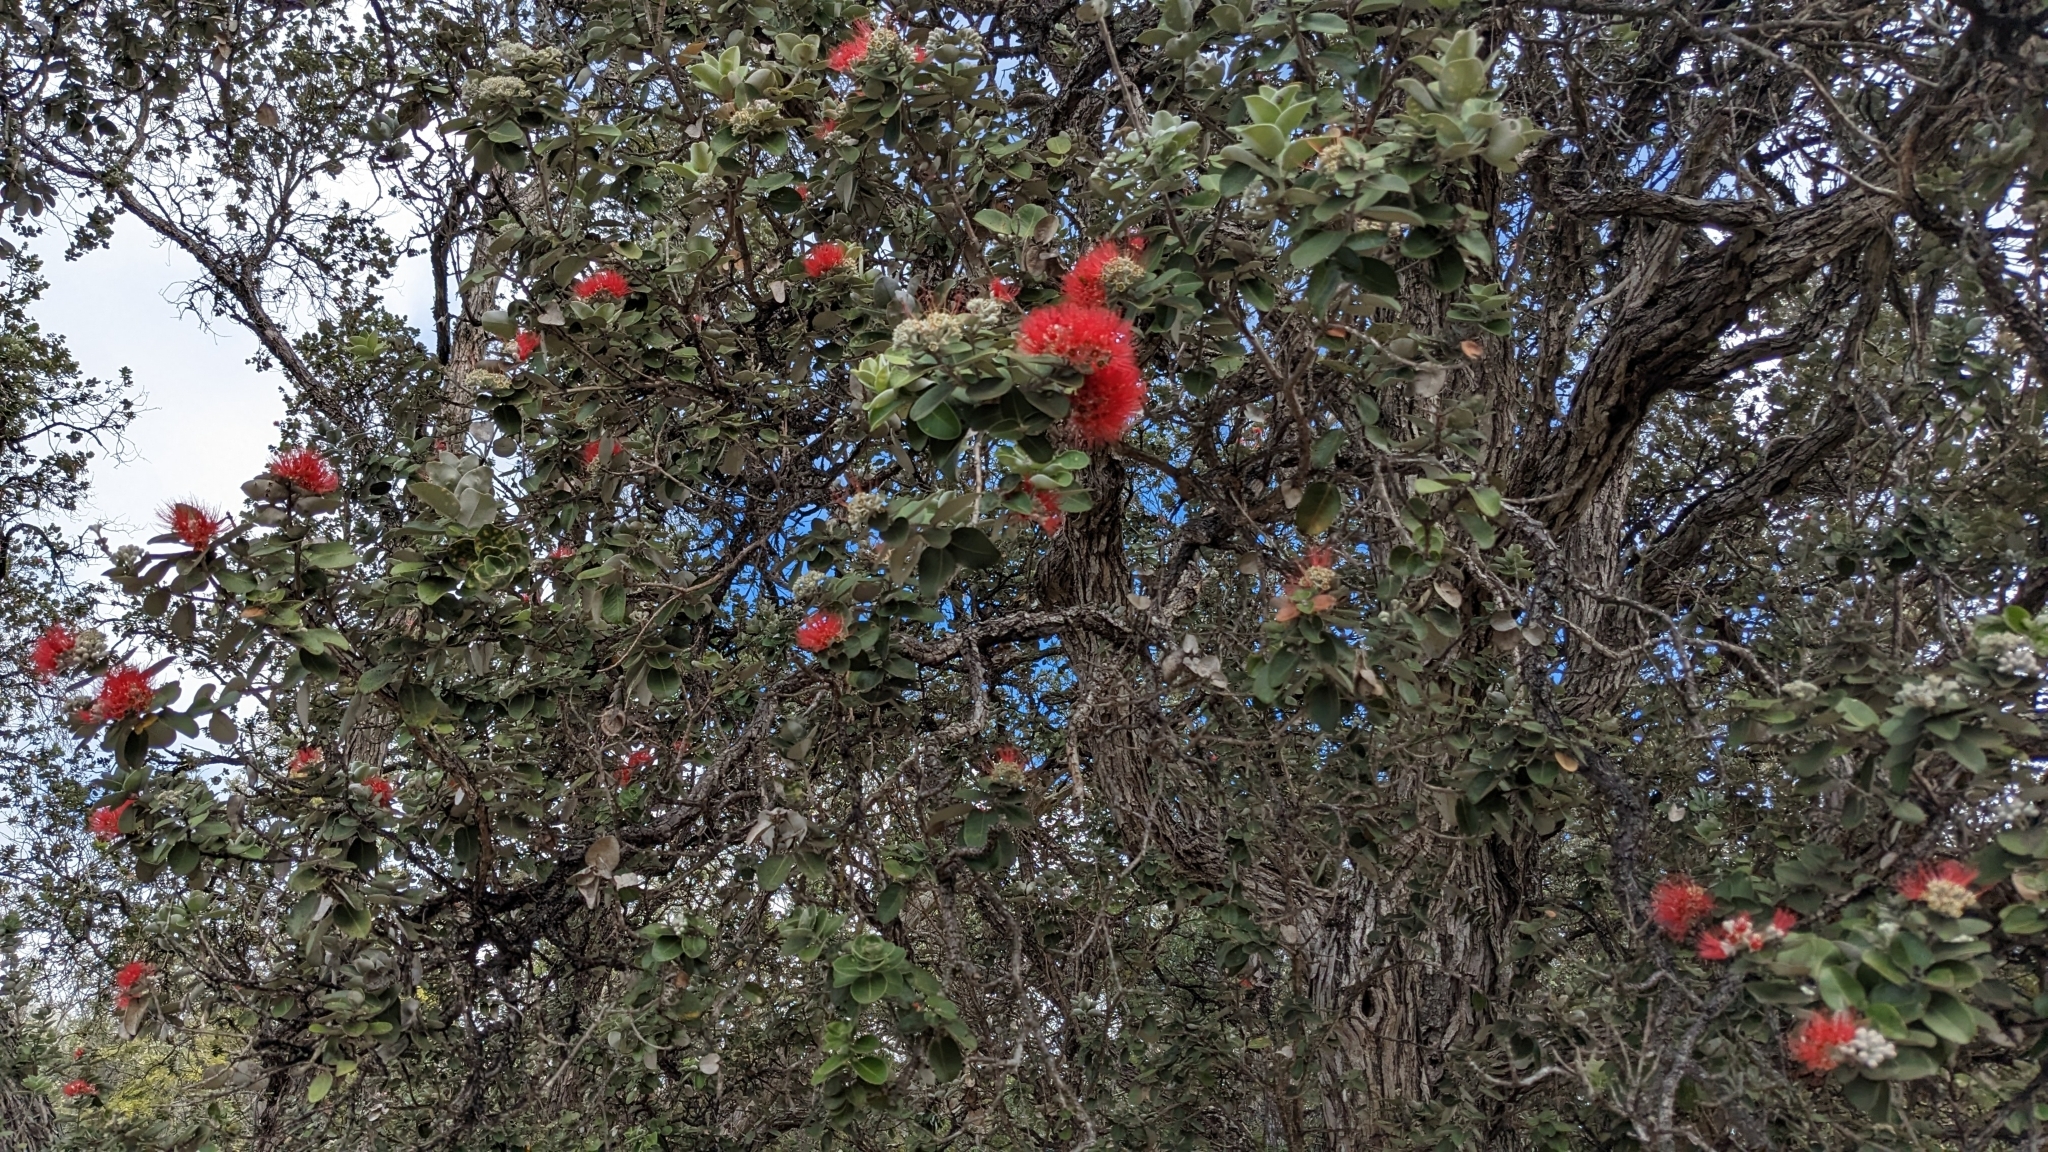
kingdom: Plantae
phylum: Tracheophyta
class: Magnoliopsida
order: Myrtales
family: Myrtaceae
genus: Metrosideros
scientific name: Metrosideros polymorpha
